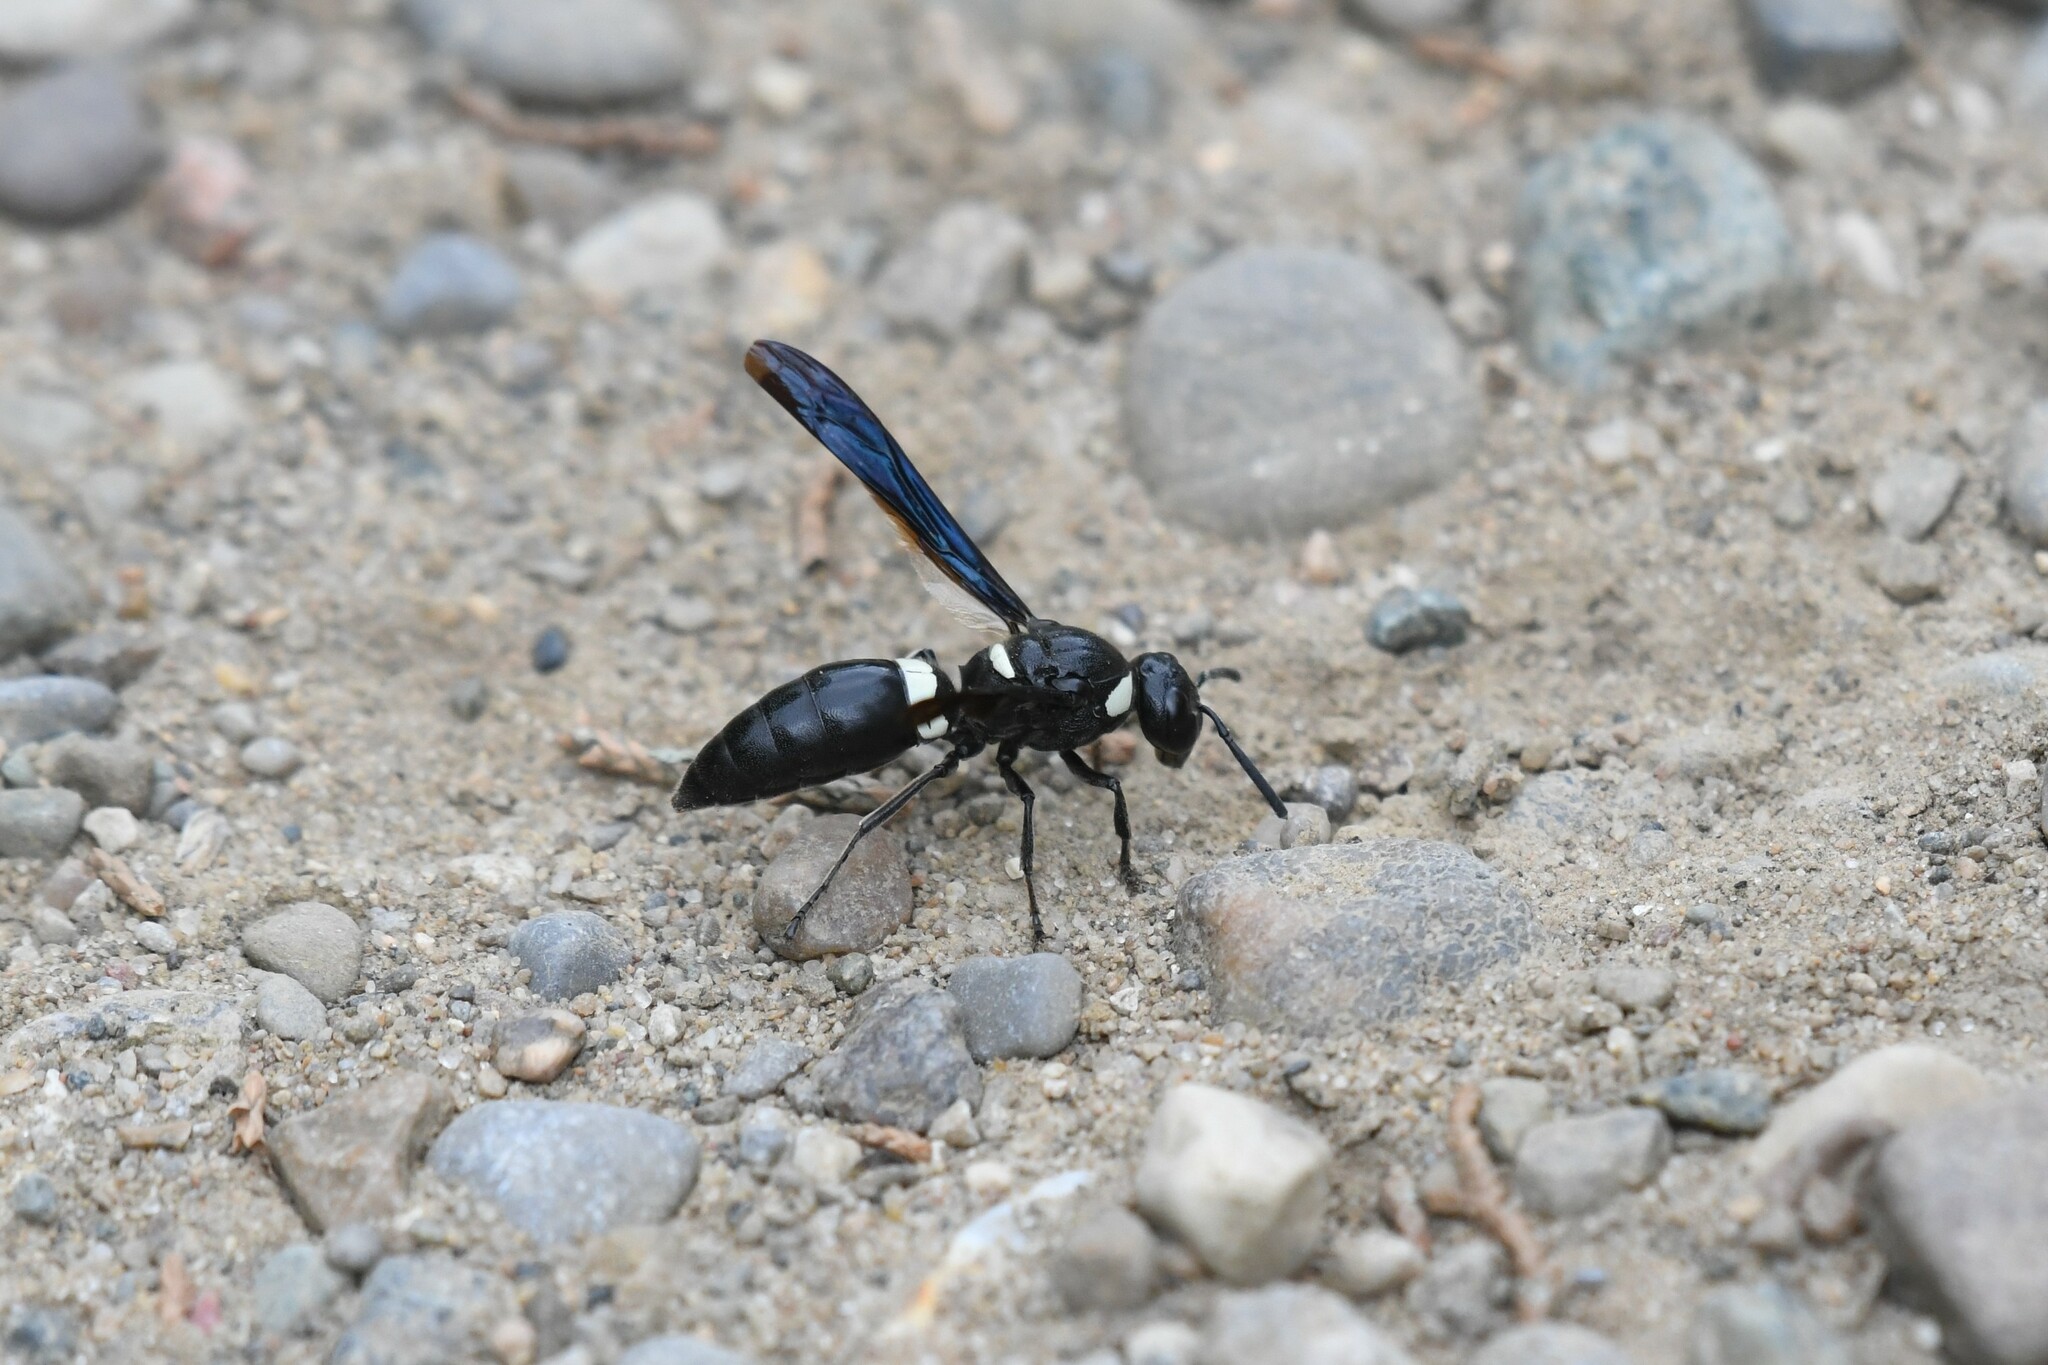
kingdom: Animalia
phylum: Arthropoda
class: Insecta
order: Hymenoptera
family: Eumenidae
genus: Monobia
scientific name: Monobia quadridens
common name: Four-toothed mason wasp
